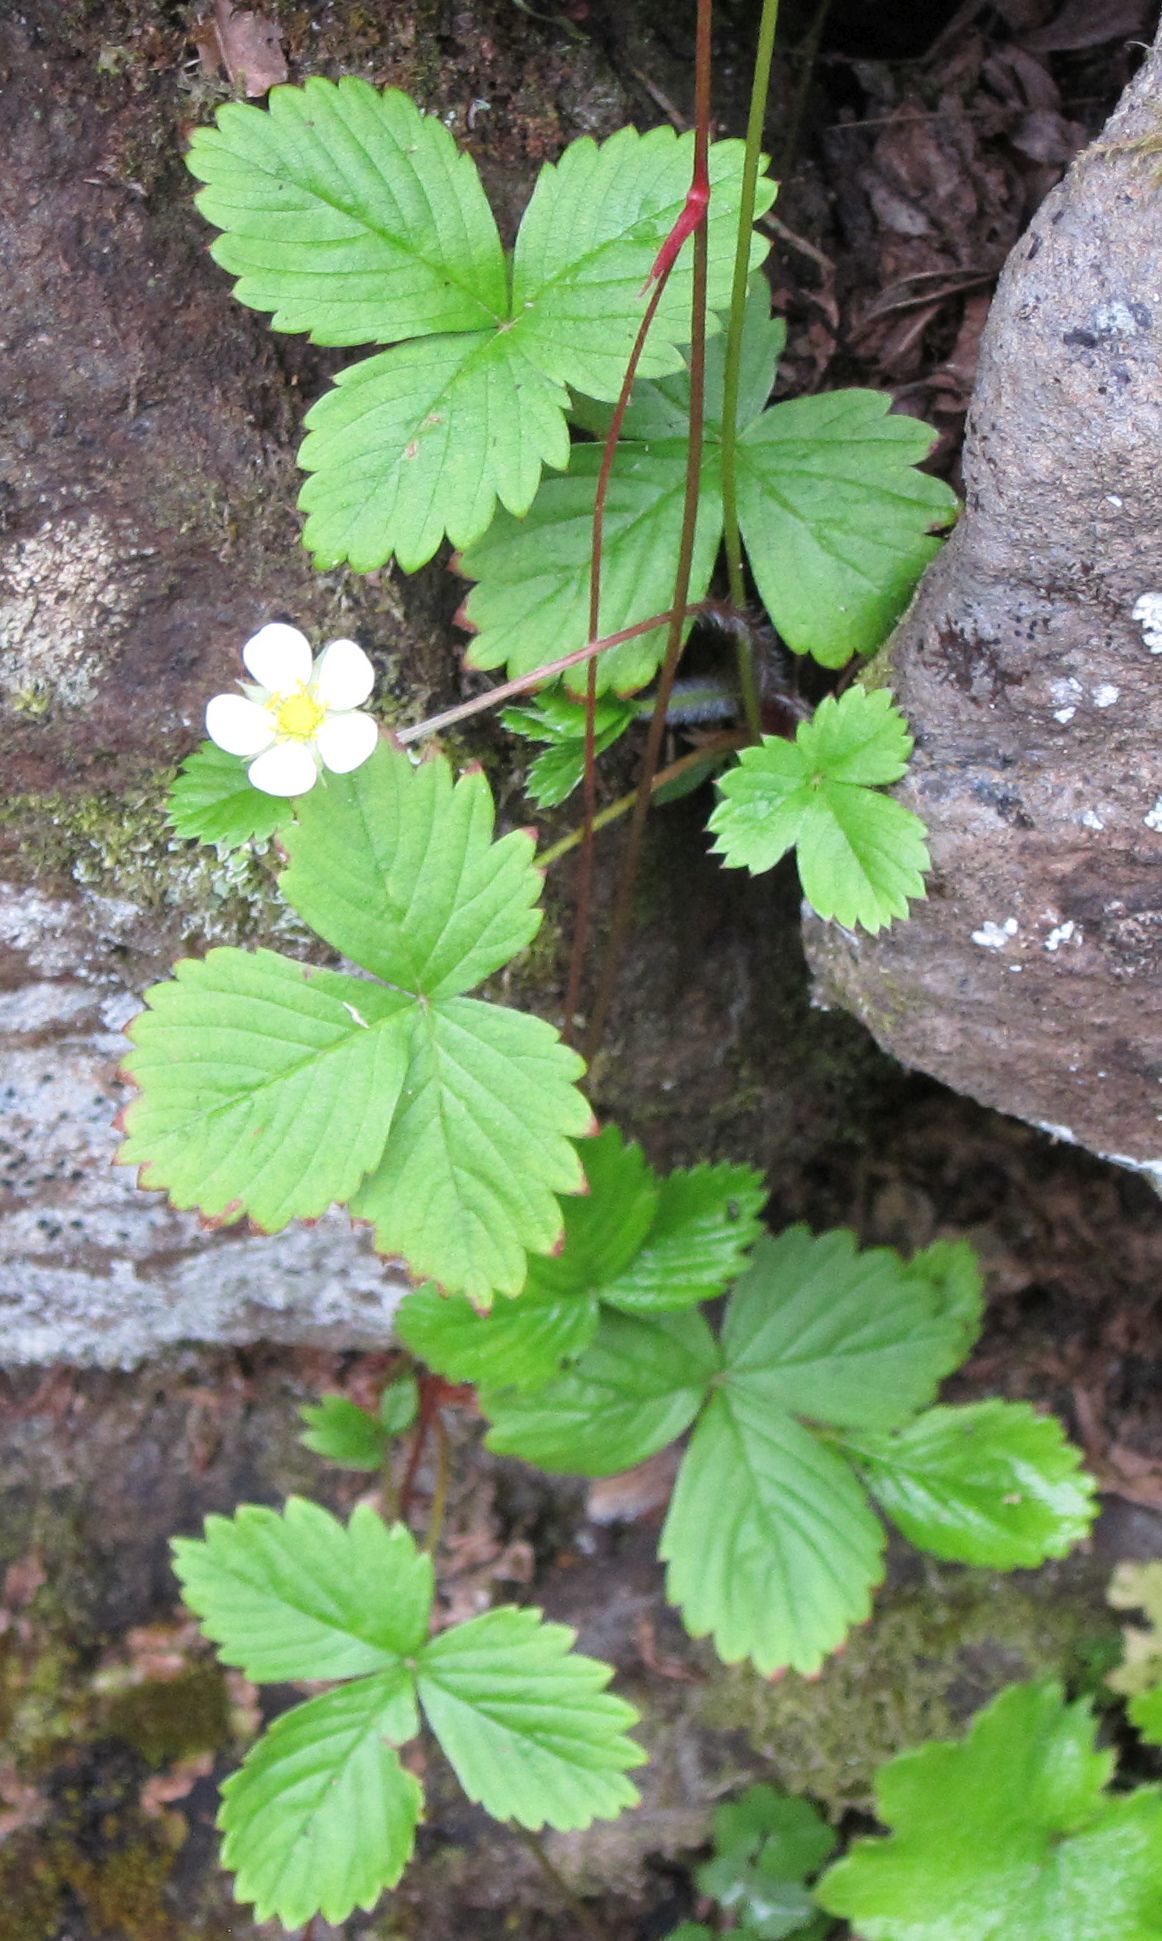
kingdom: Plantae
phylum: Tracheophyta
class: Magnoliopsida
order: Rosales
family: Rosaceae
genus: Fragaria
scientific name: Fragaria vesca
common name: Wild strawberry
